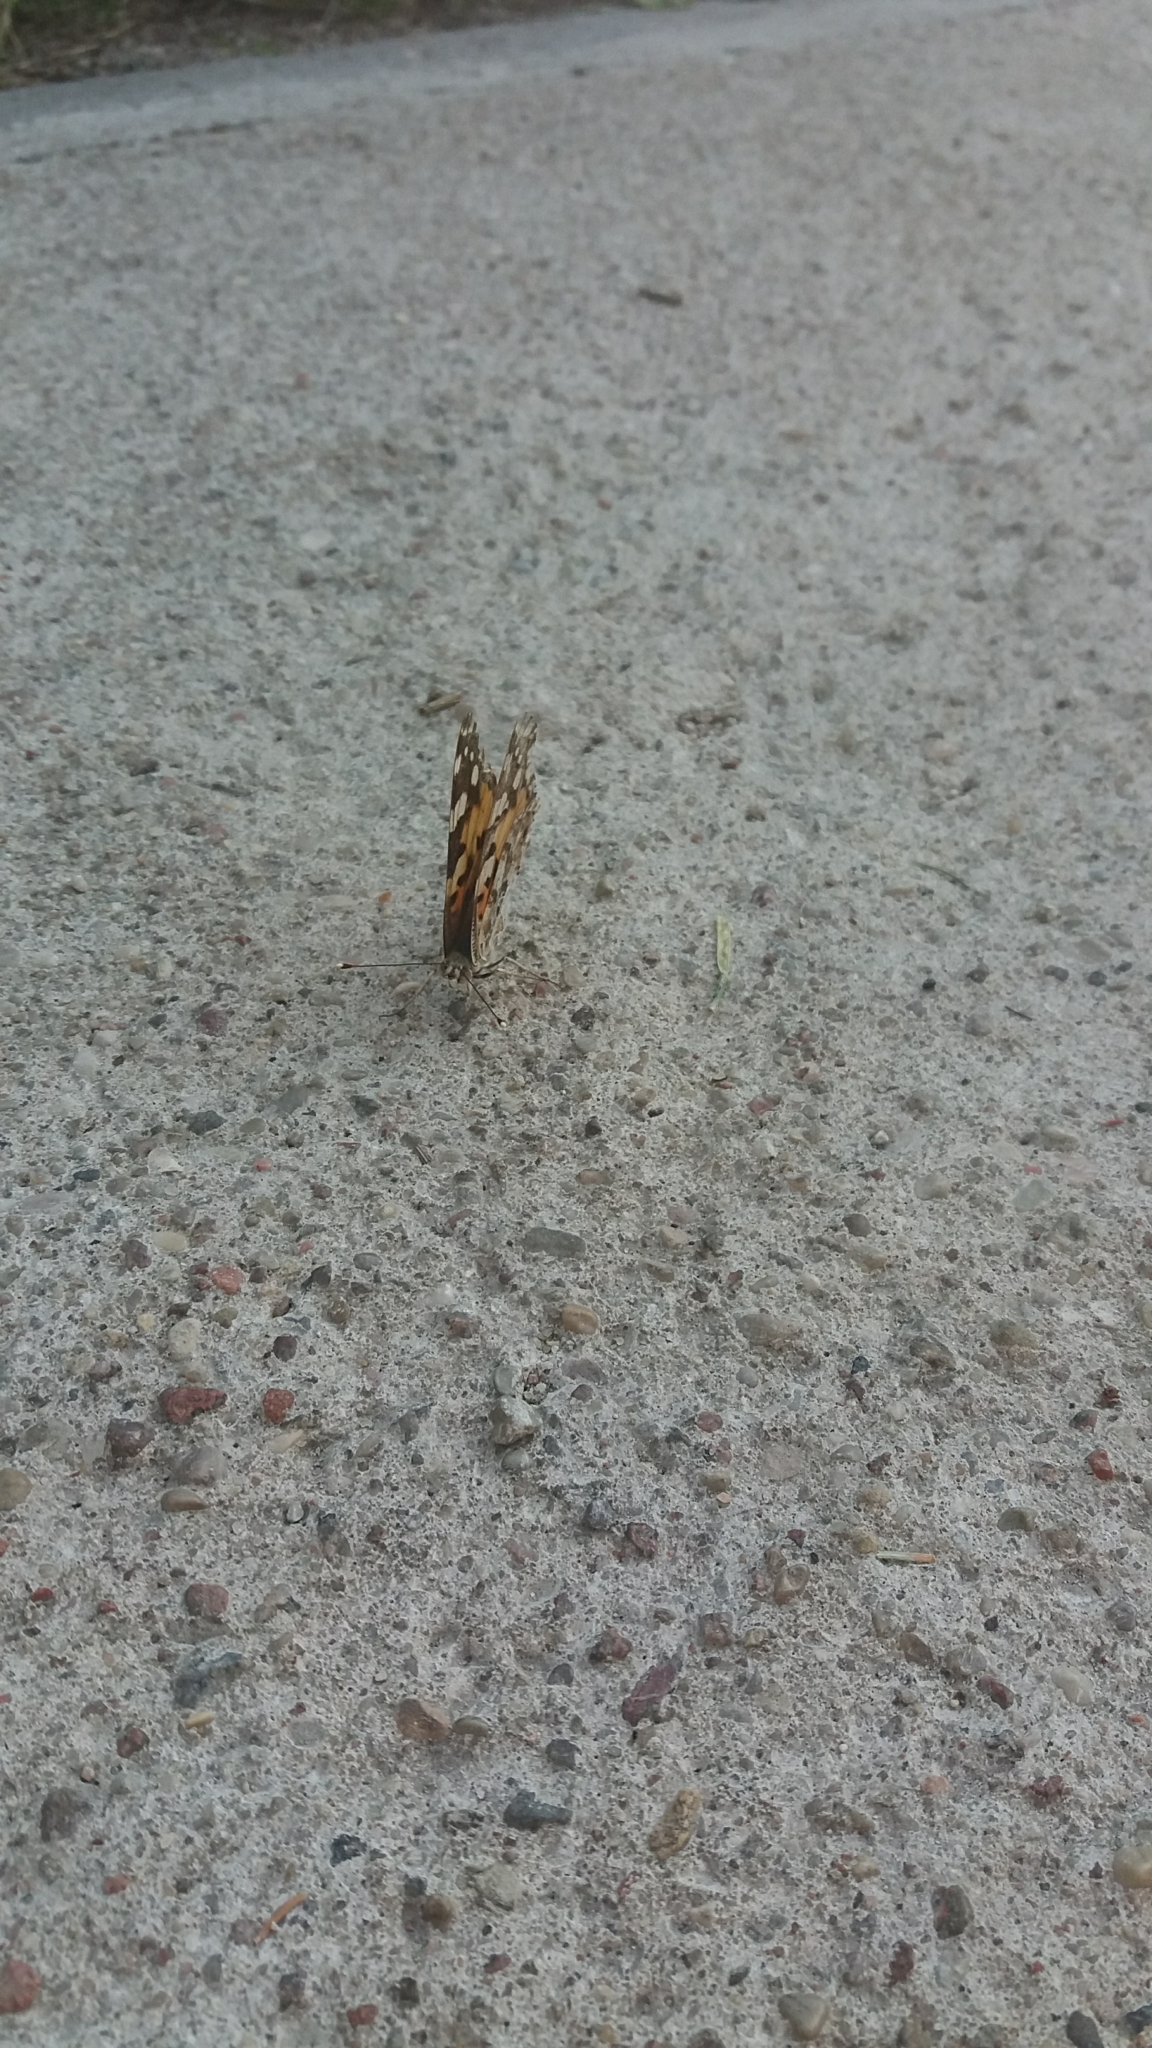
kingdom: Animalia
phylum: Arthropoda
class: Insecta
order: Lepidoptera
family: Nymphalidae
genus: Vanessa
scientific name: Vanessa cardui
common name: Painted lady
